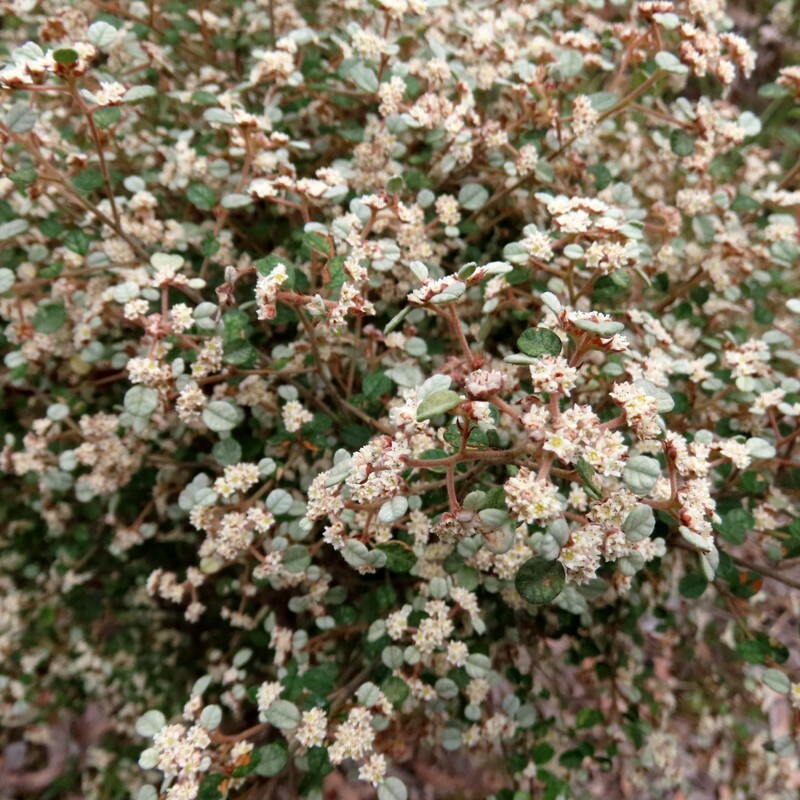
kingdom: Plantae
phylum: Tracheophyta
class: Magnoliopsida
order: Rosales
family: Rhamnaceae
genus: Spyridium
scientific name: Spyridium parvifolium
